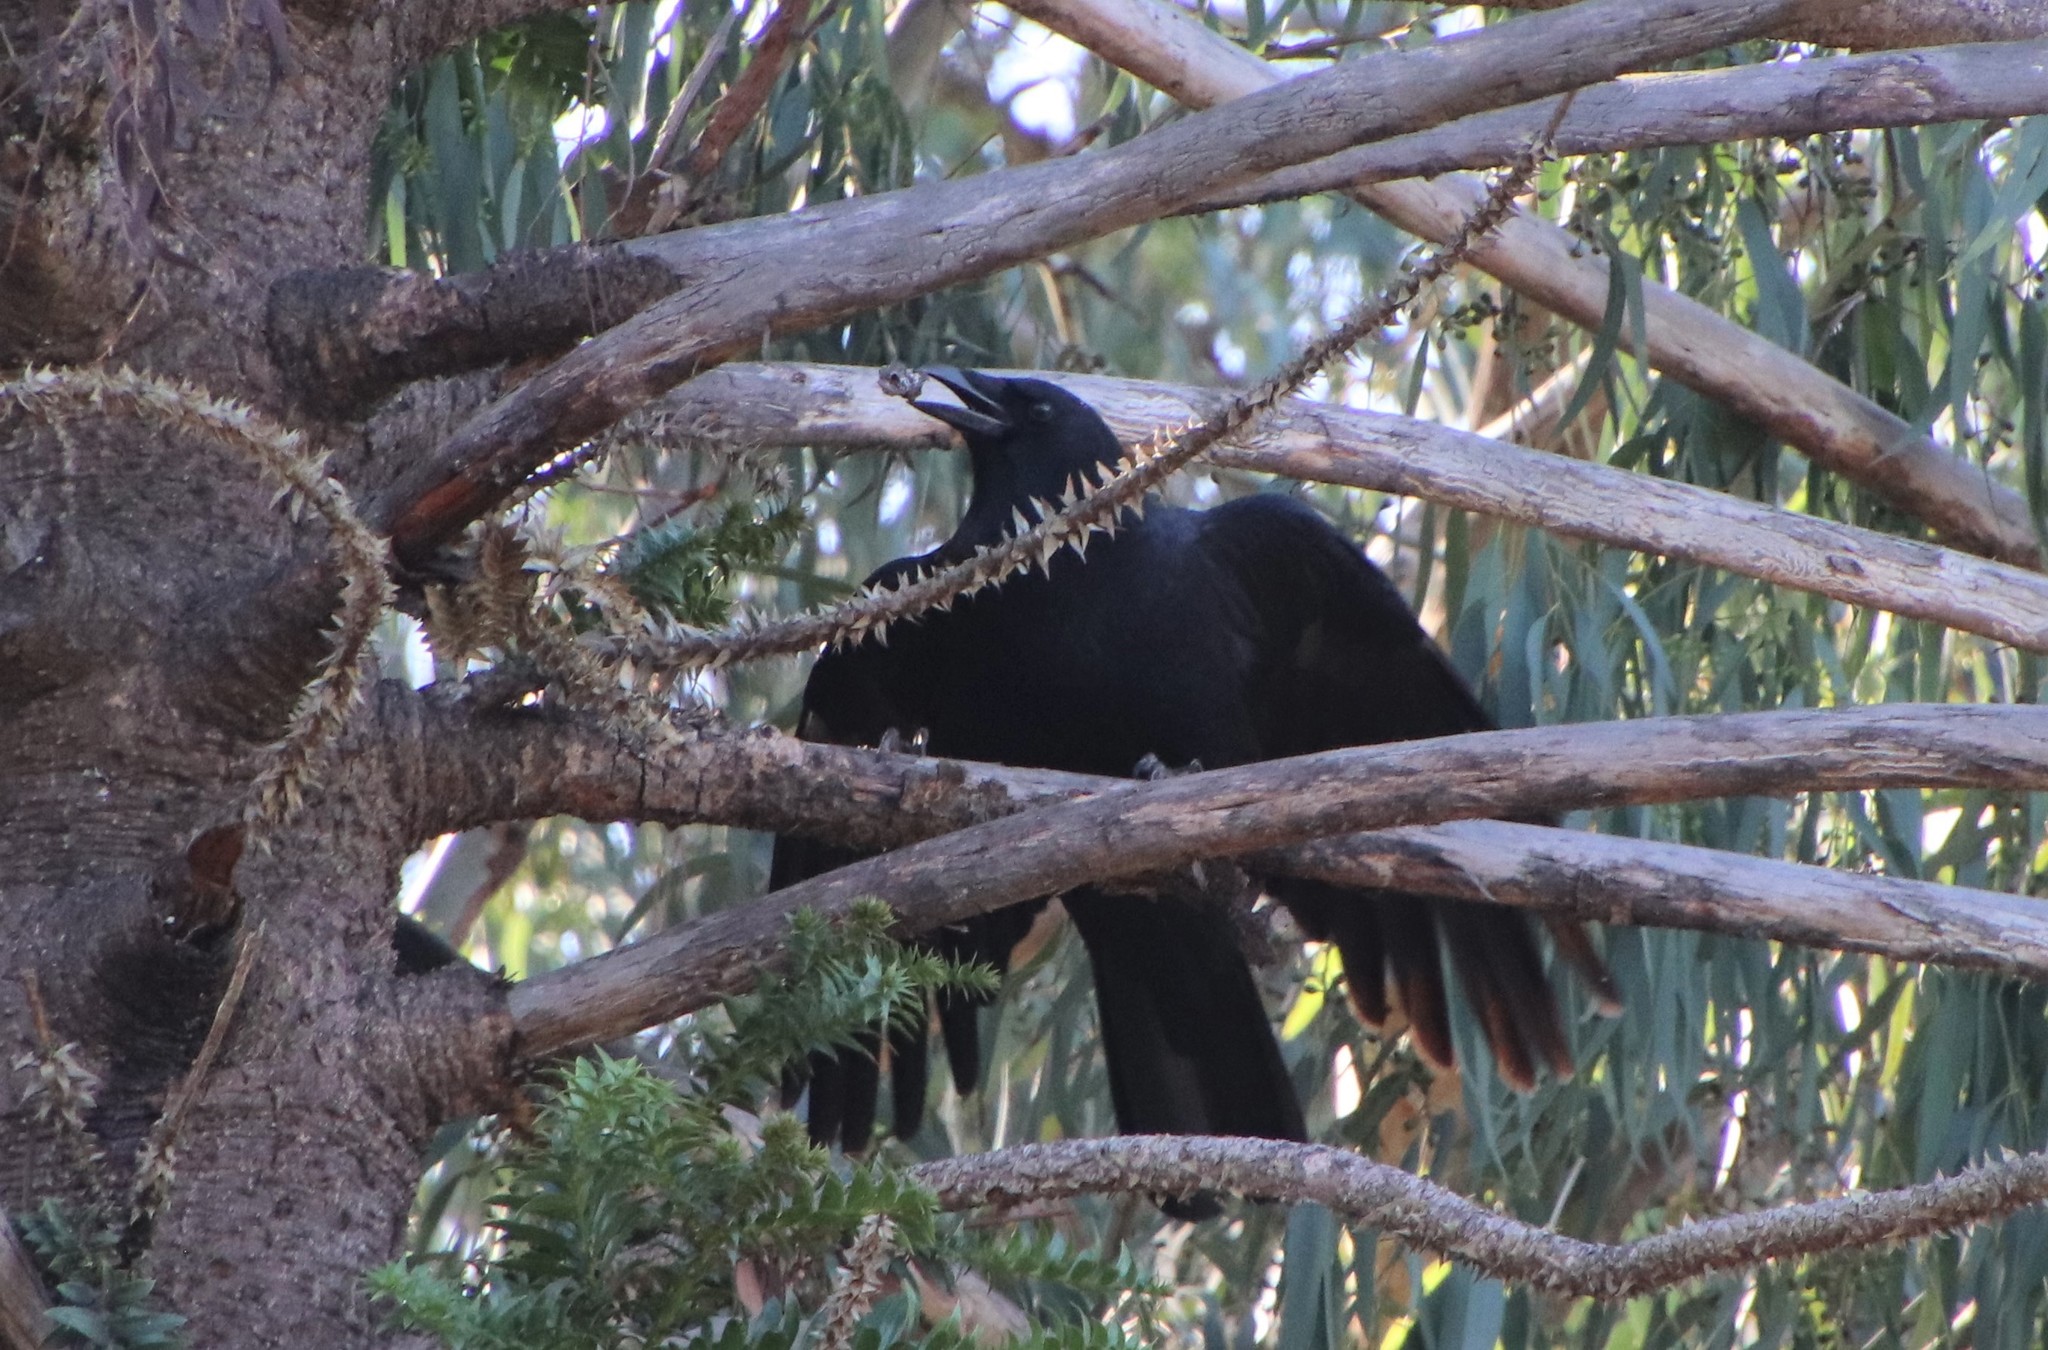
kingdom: Animalia
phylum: Chordata
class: Aves
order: Passeriformes
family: Corvidae
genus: Corvus
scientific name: Corvus brachyrhynchos
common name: American crow
